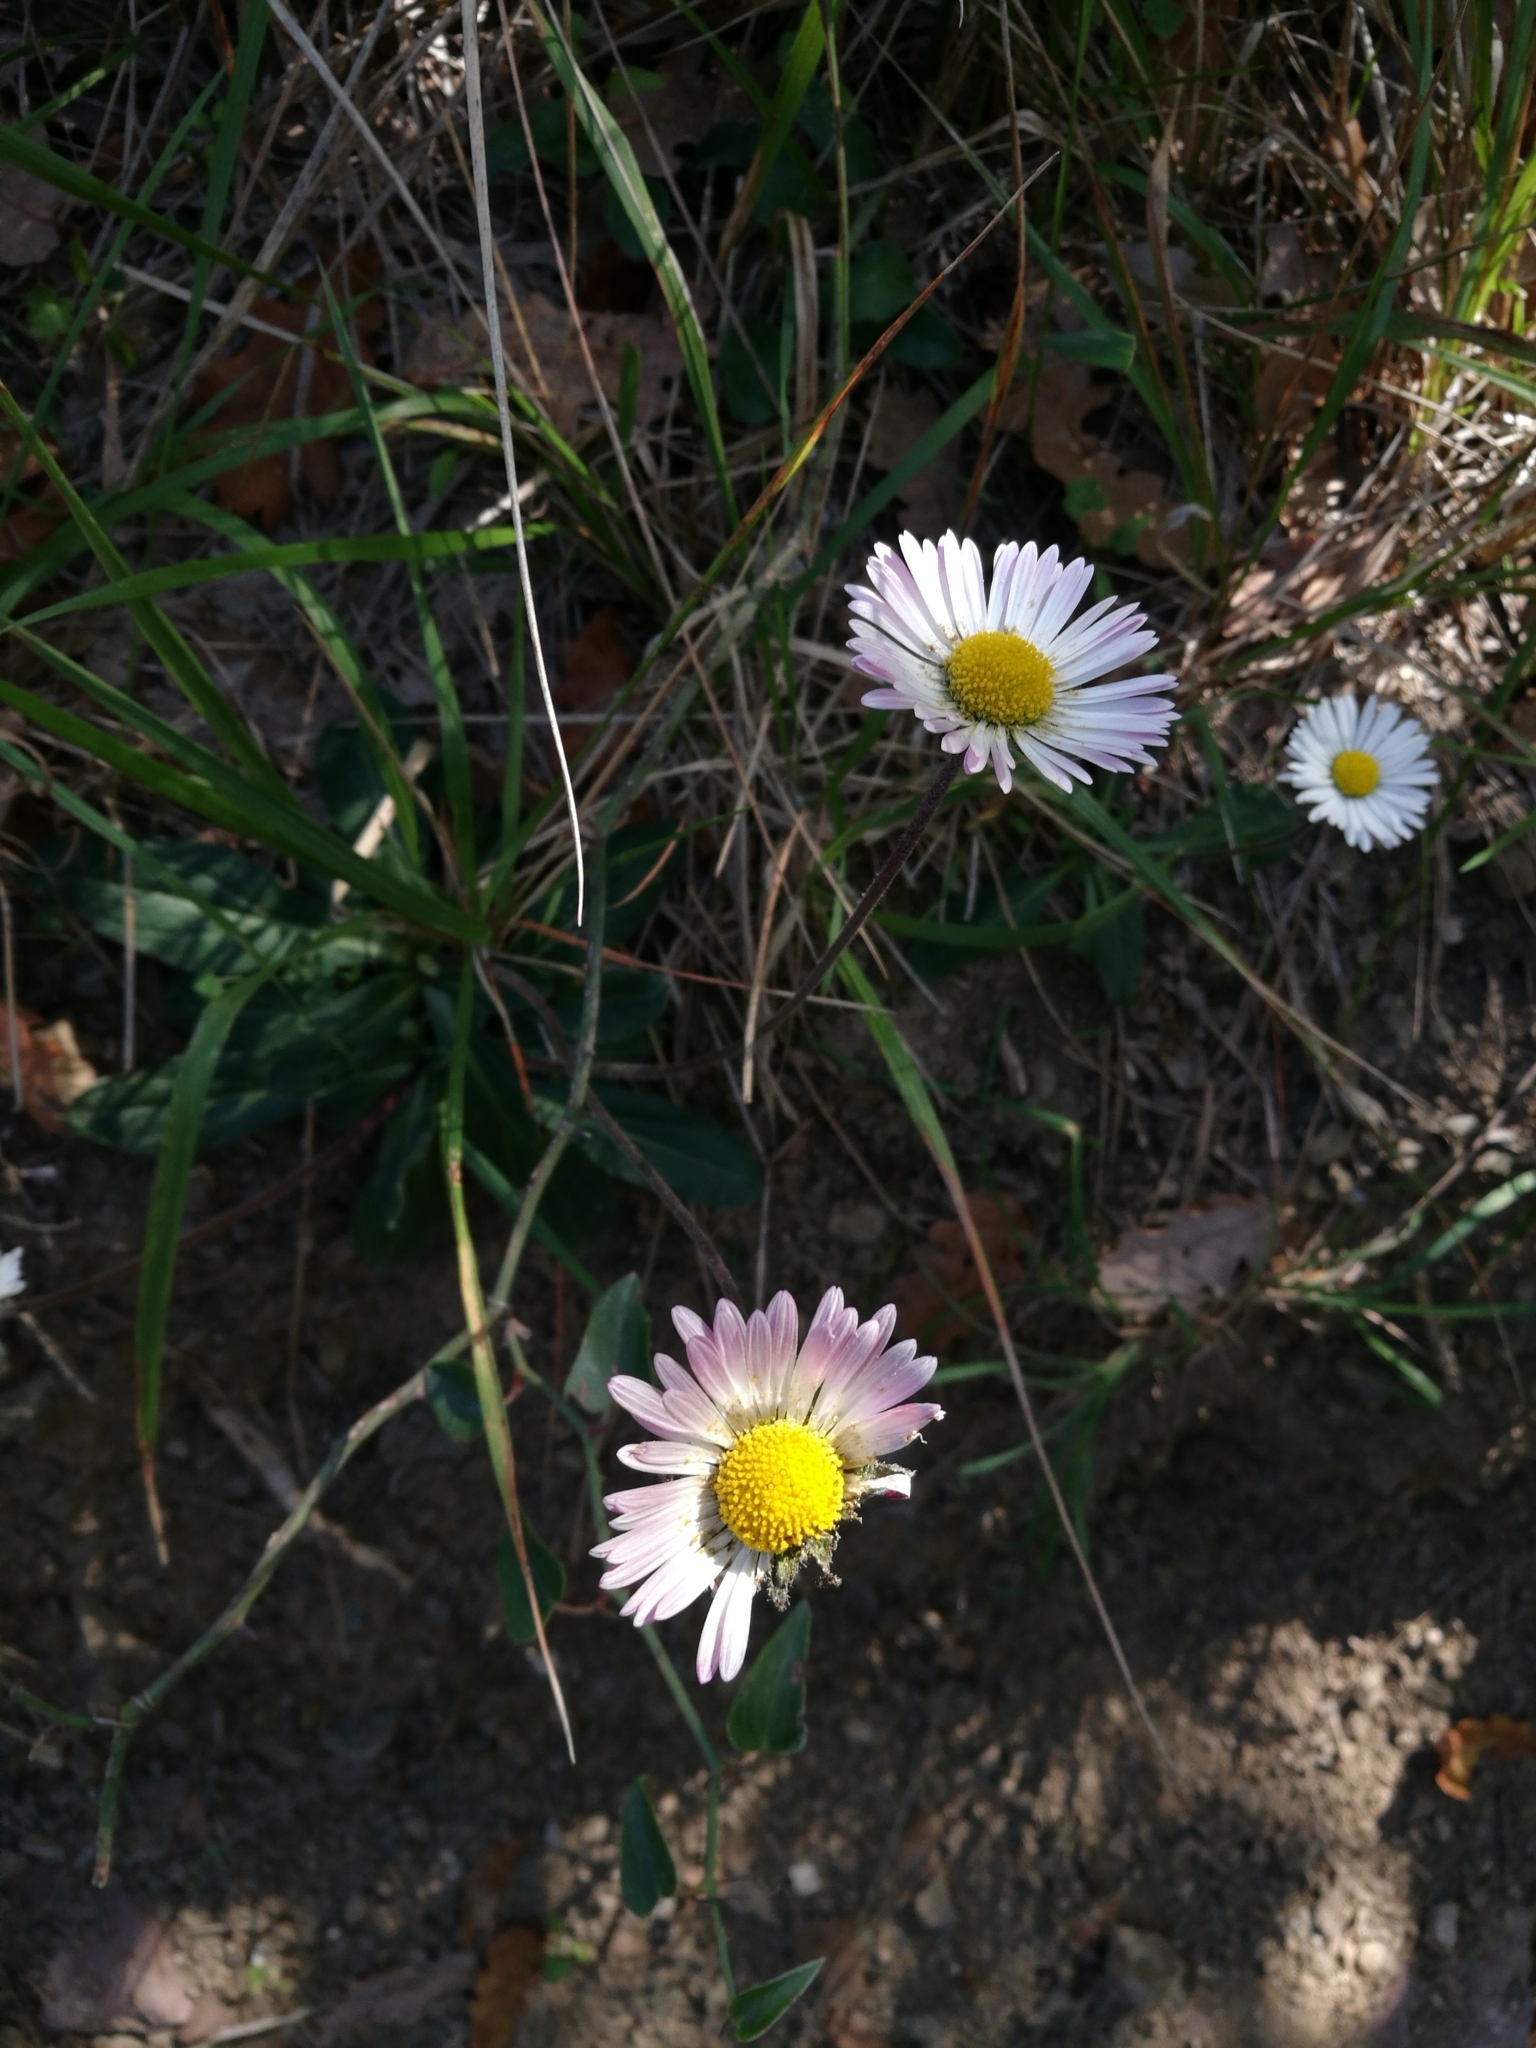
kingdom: Plantae
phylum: Tracheophyta
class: Magnoliopsida
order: Asterales
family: Asteraceae
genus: Bellis
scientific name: Bellis sylvestris
